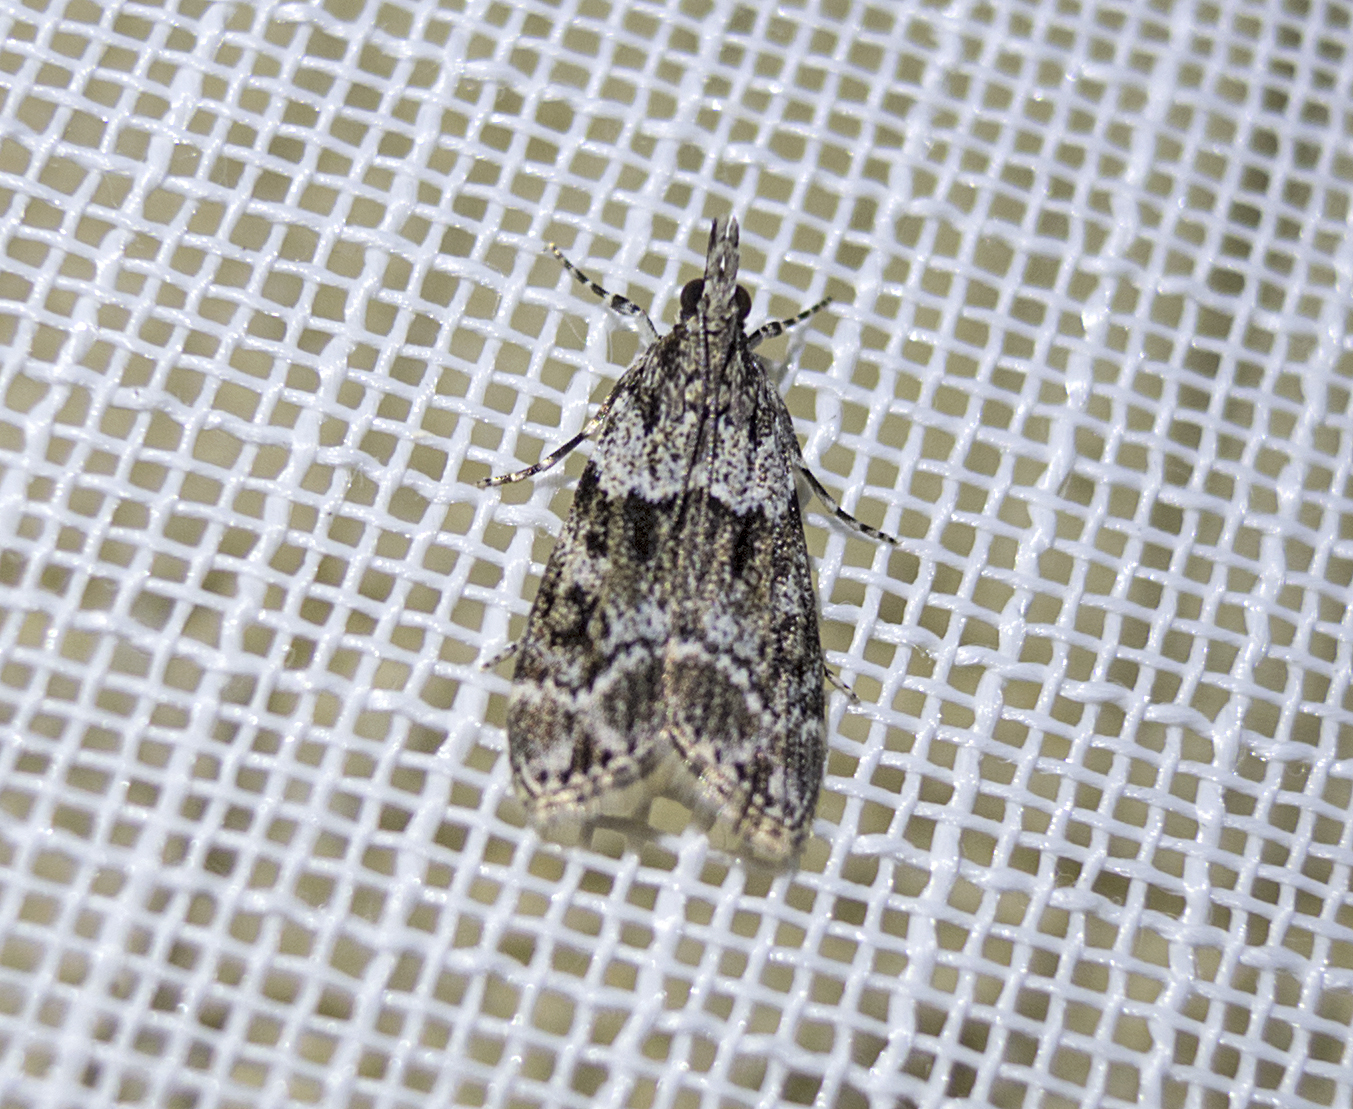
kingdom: Animalia
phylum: Arthropoda
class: Insecta
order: Lepidoptera
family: Crambidae
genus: Eudonia
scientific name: Eudonia mercurella
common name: Small grey
